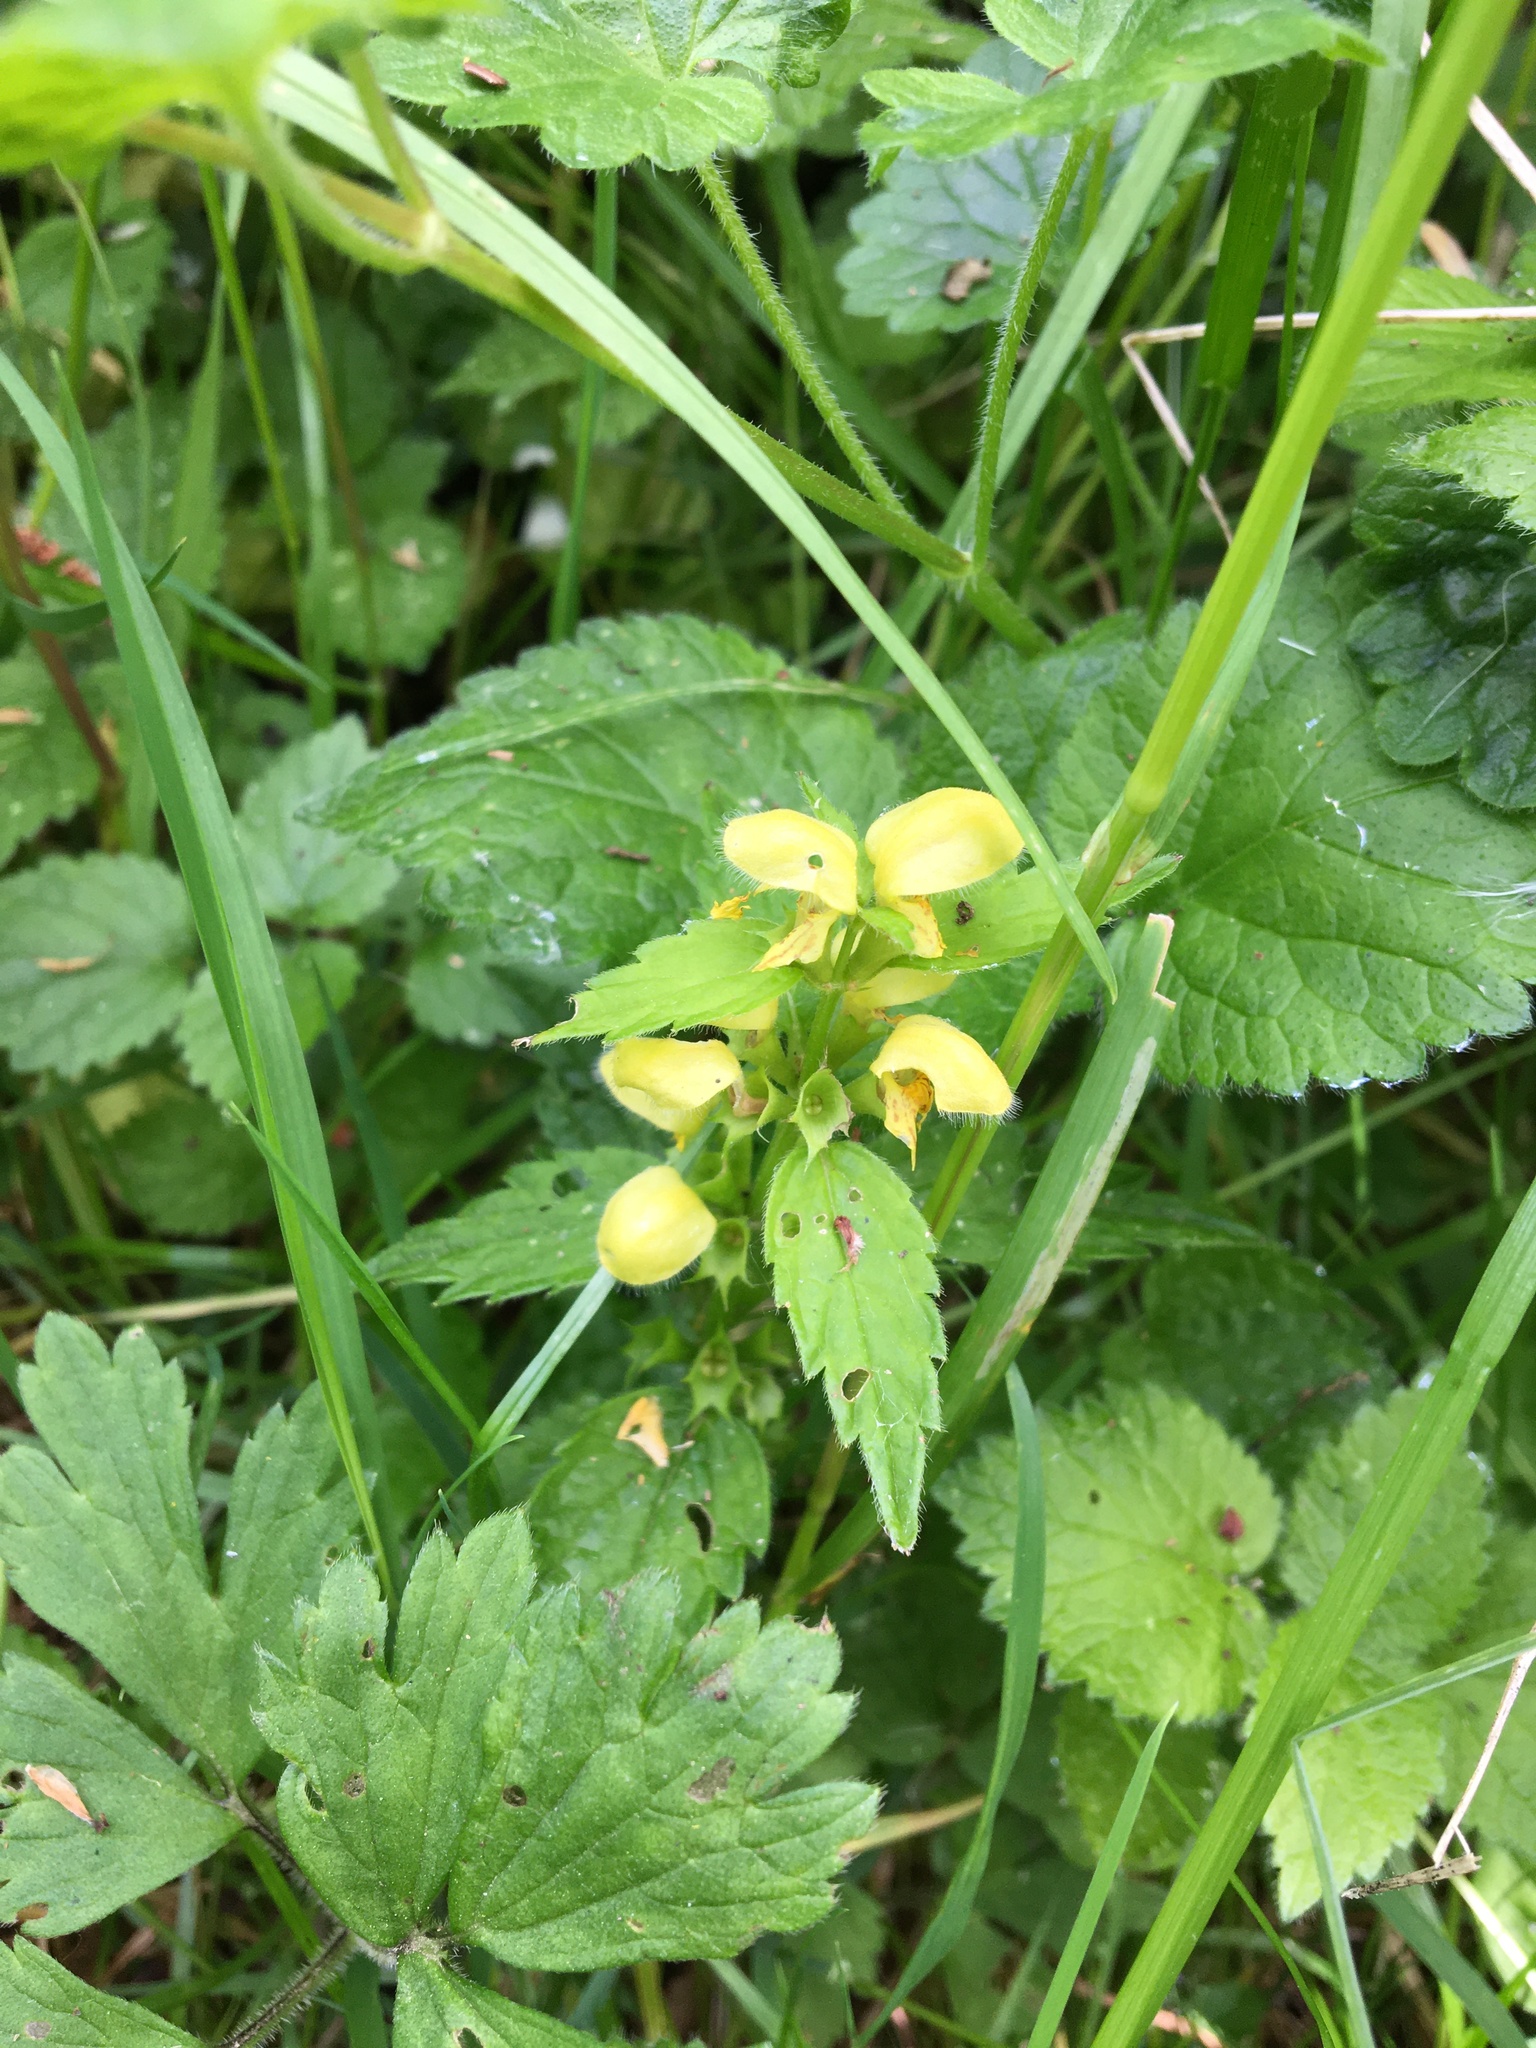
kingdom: Plantae
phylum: Tracheophyta
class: Magnoliopsida
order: Lamiales
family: Lamiaceae
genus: Lamium
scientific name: Lamium galeobdolon
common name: Yellow archangel
